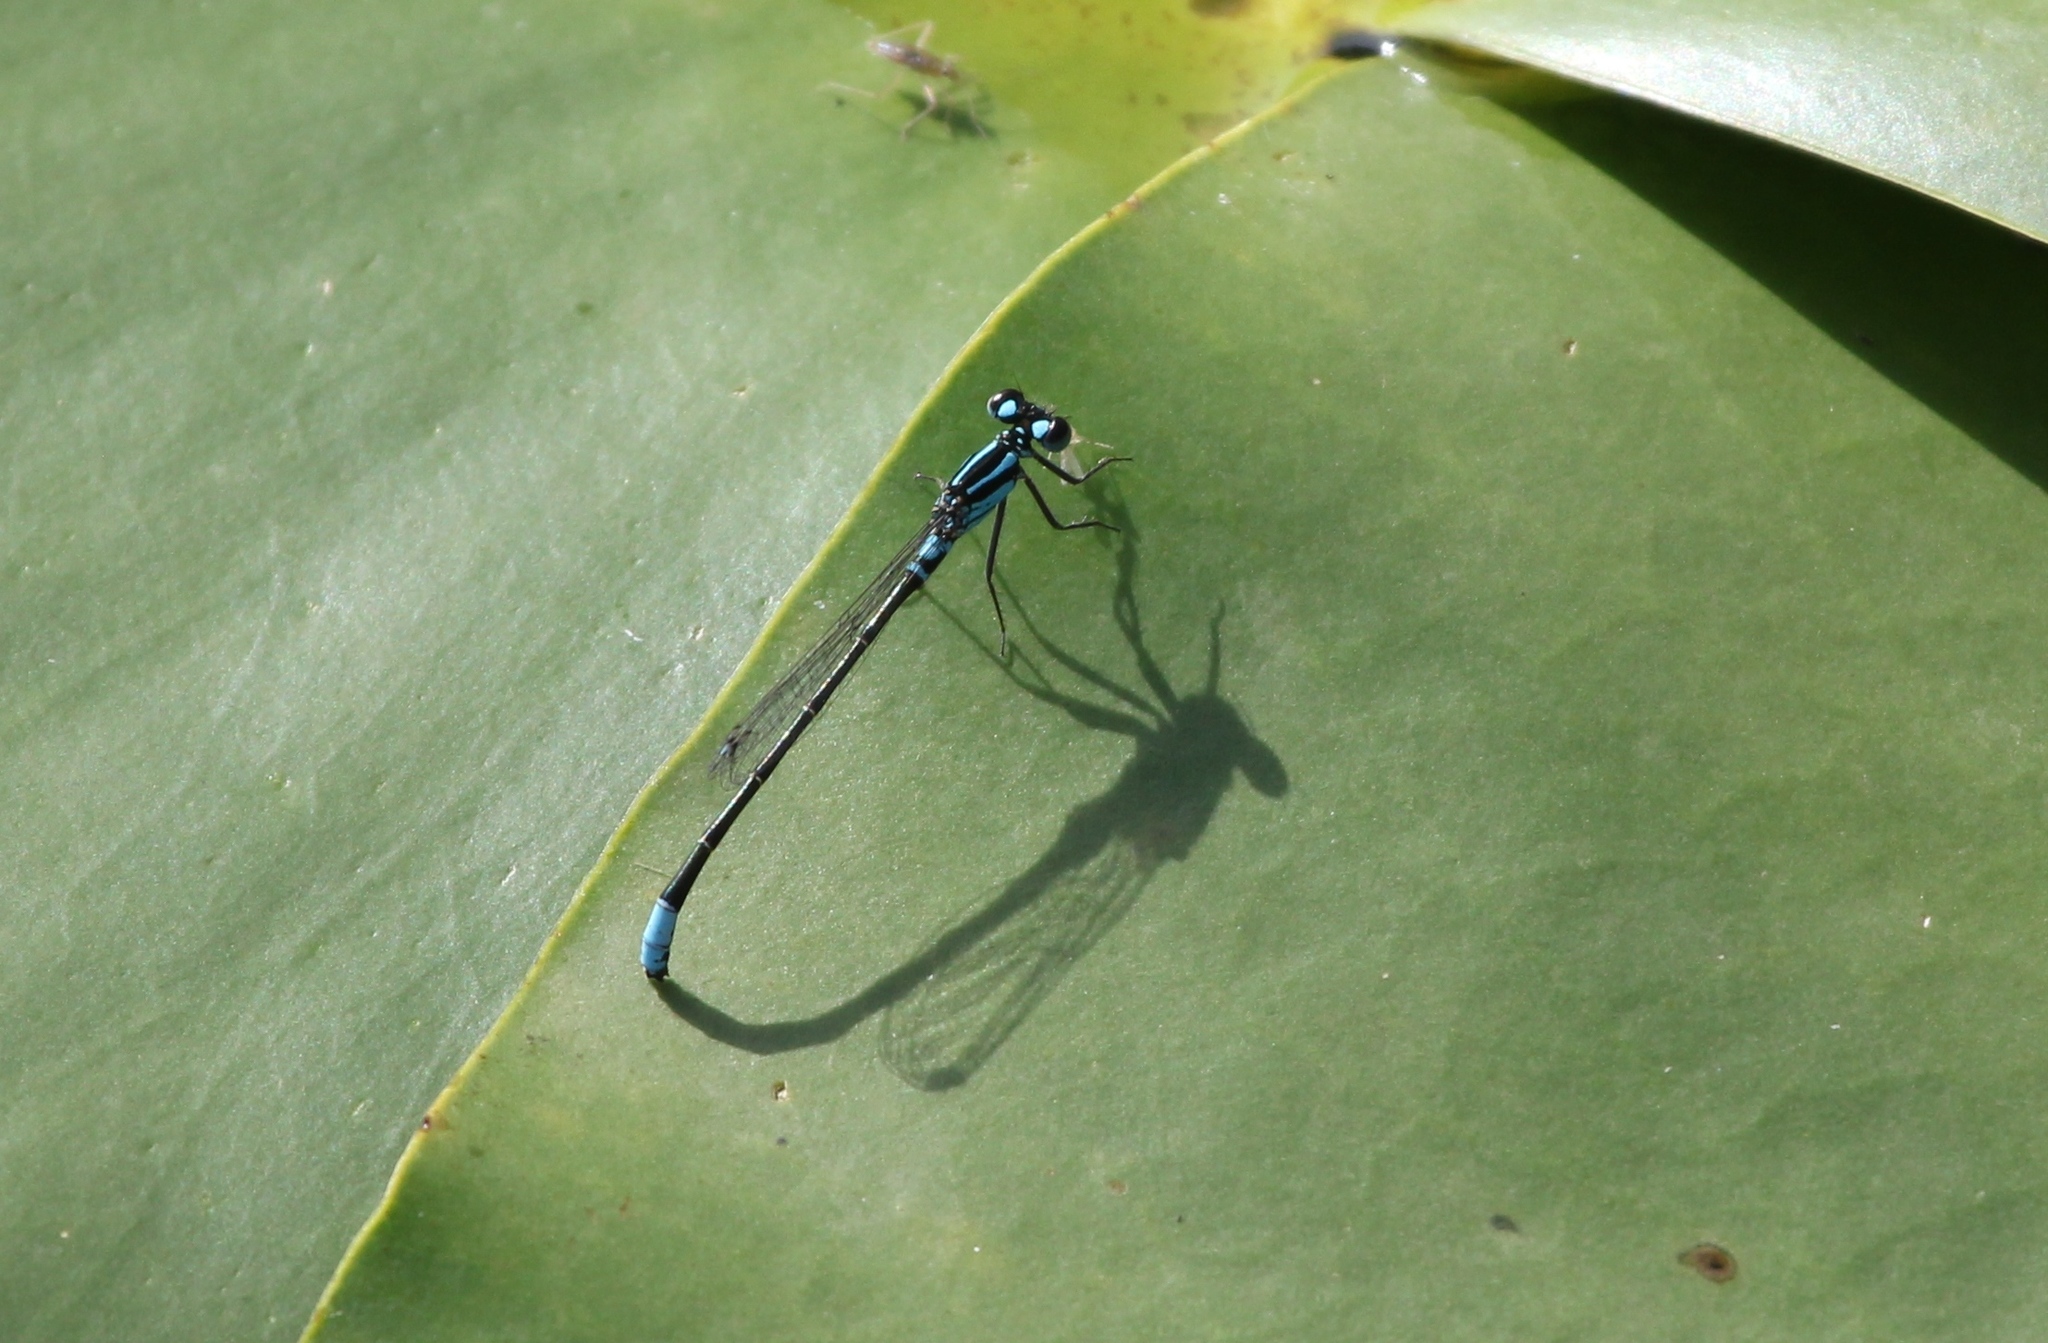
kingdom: Animalia
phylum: Arthropoda
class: Insecta
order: Odonata
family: Coenagrionidae
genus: Ischnura
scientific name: Ischnura kellicotti
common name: Lilypad forktail
